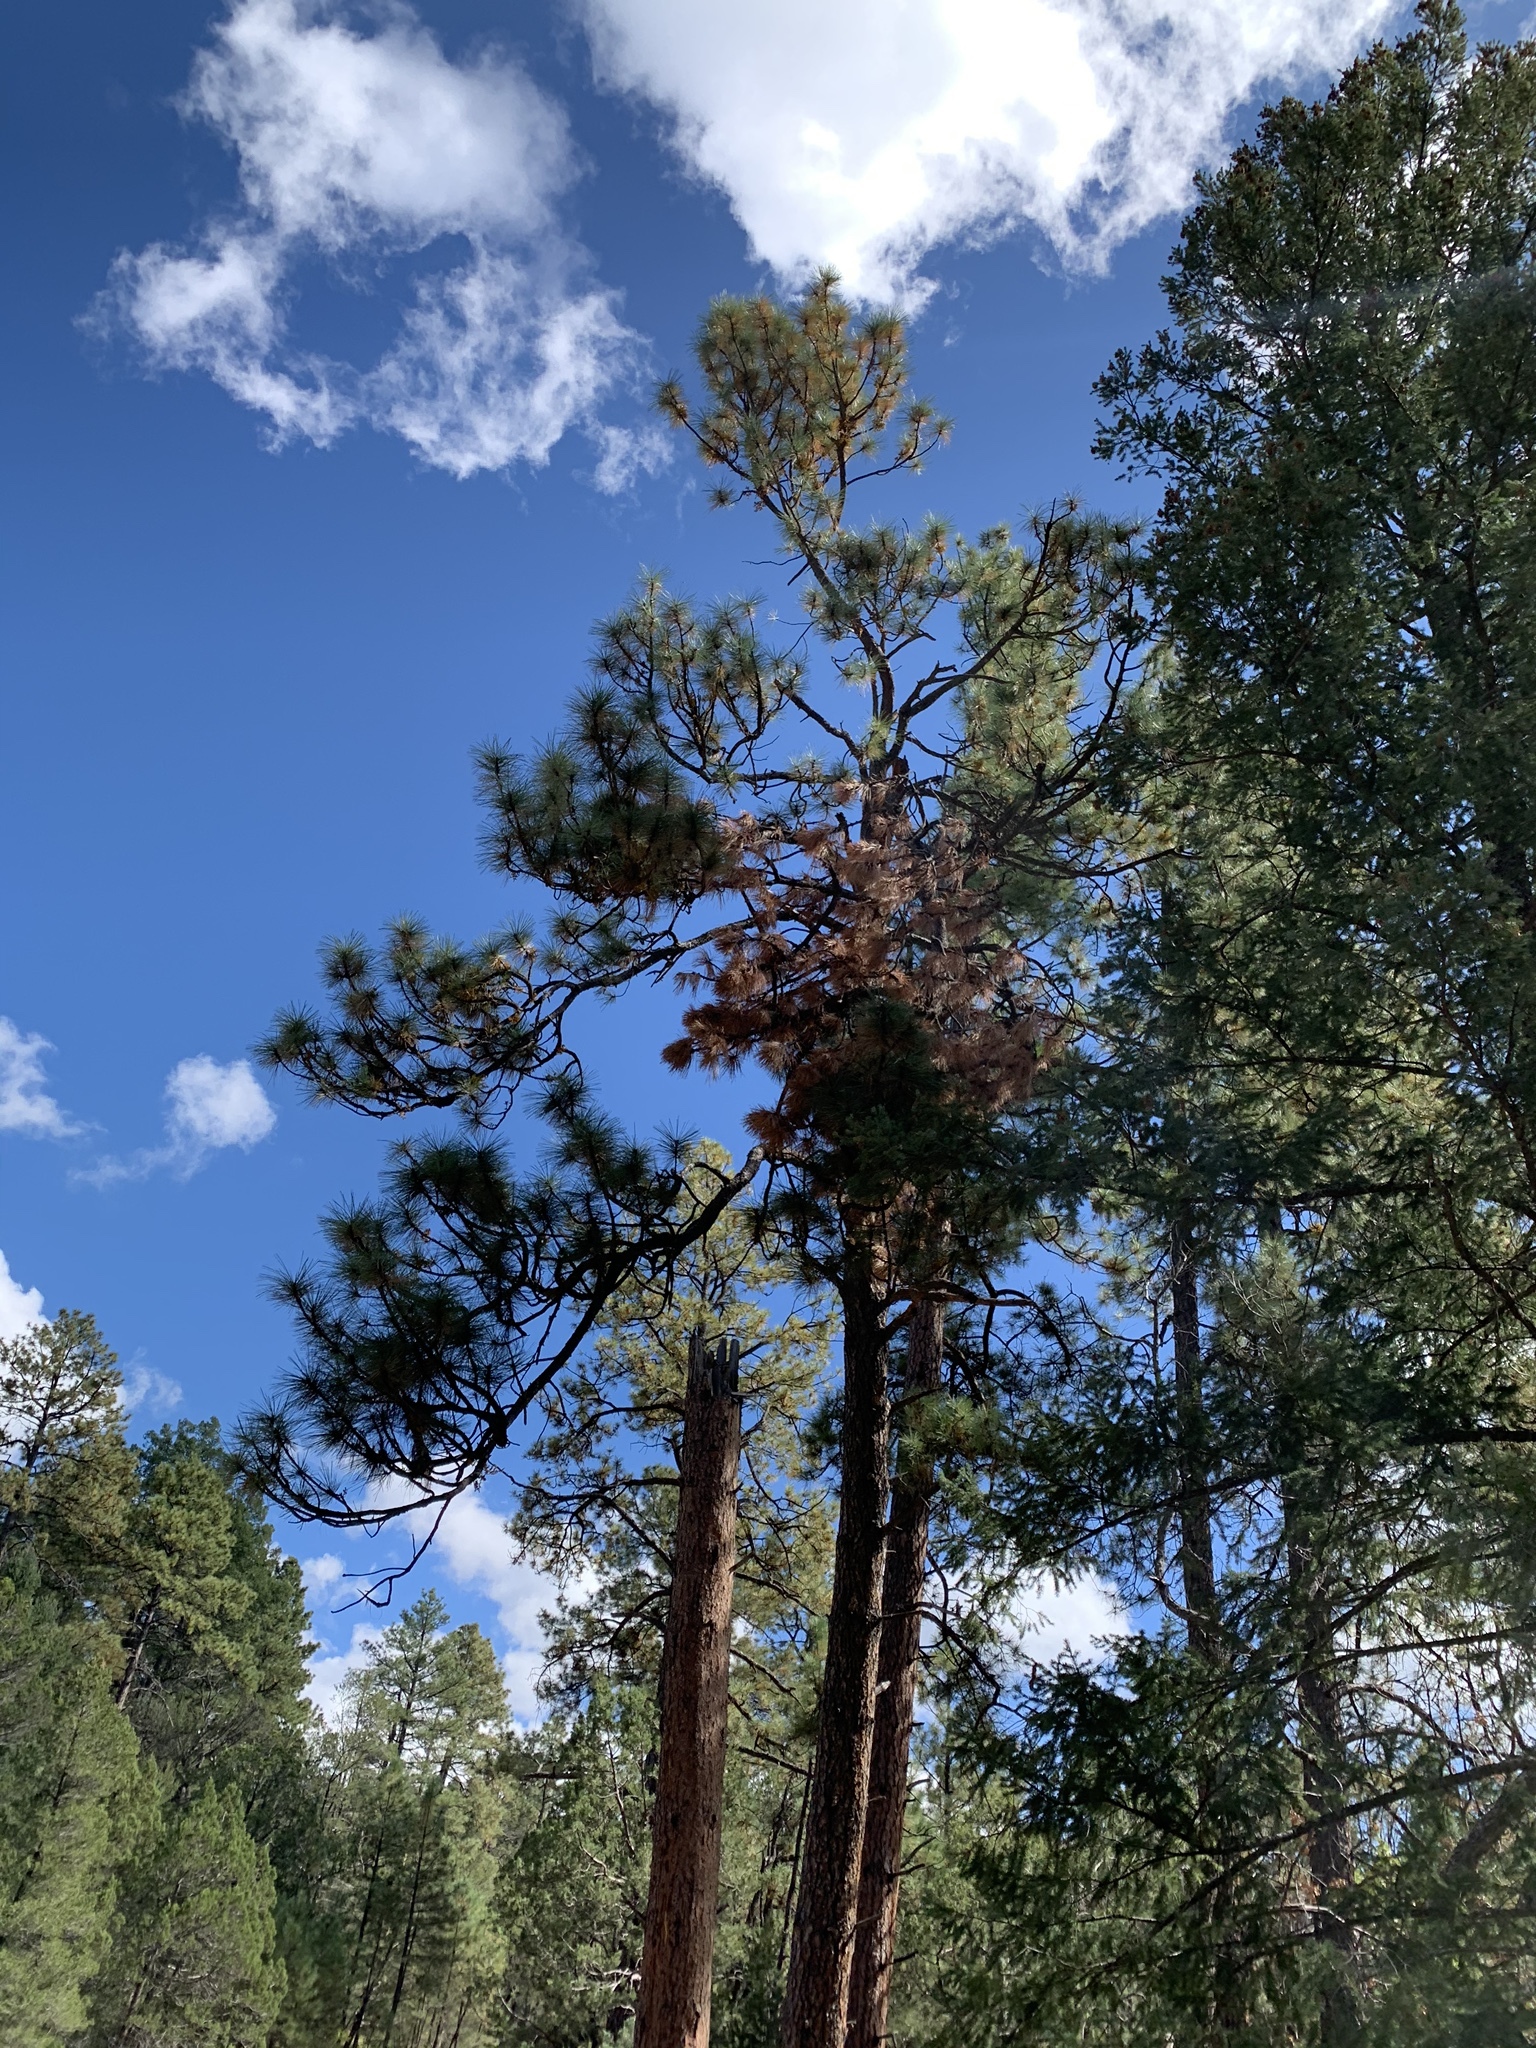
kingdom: Plantae
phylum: Tracheophyta
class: Pinopsida
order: Pinales
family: Pinaceae
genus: Pinus
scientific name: Pinus ponderosa
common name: Western yellow-pine
